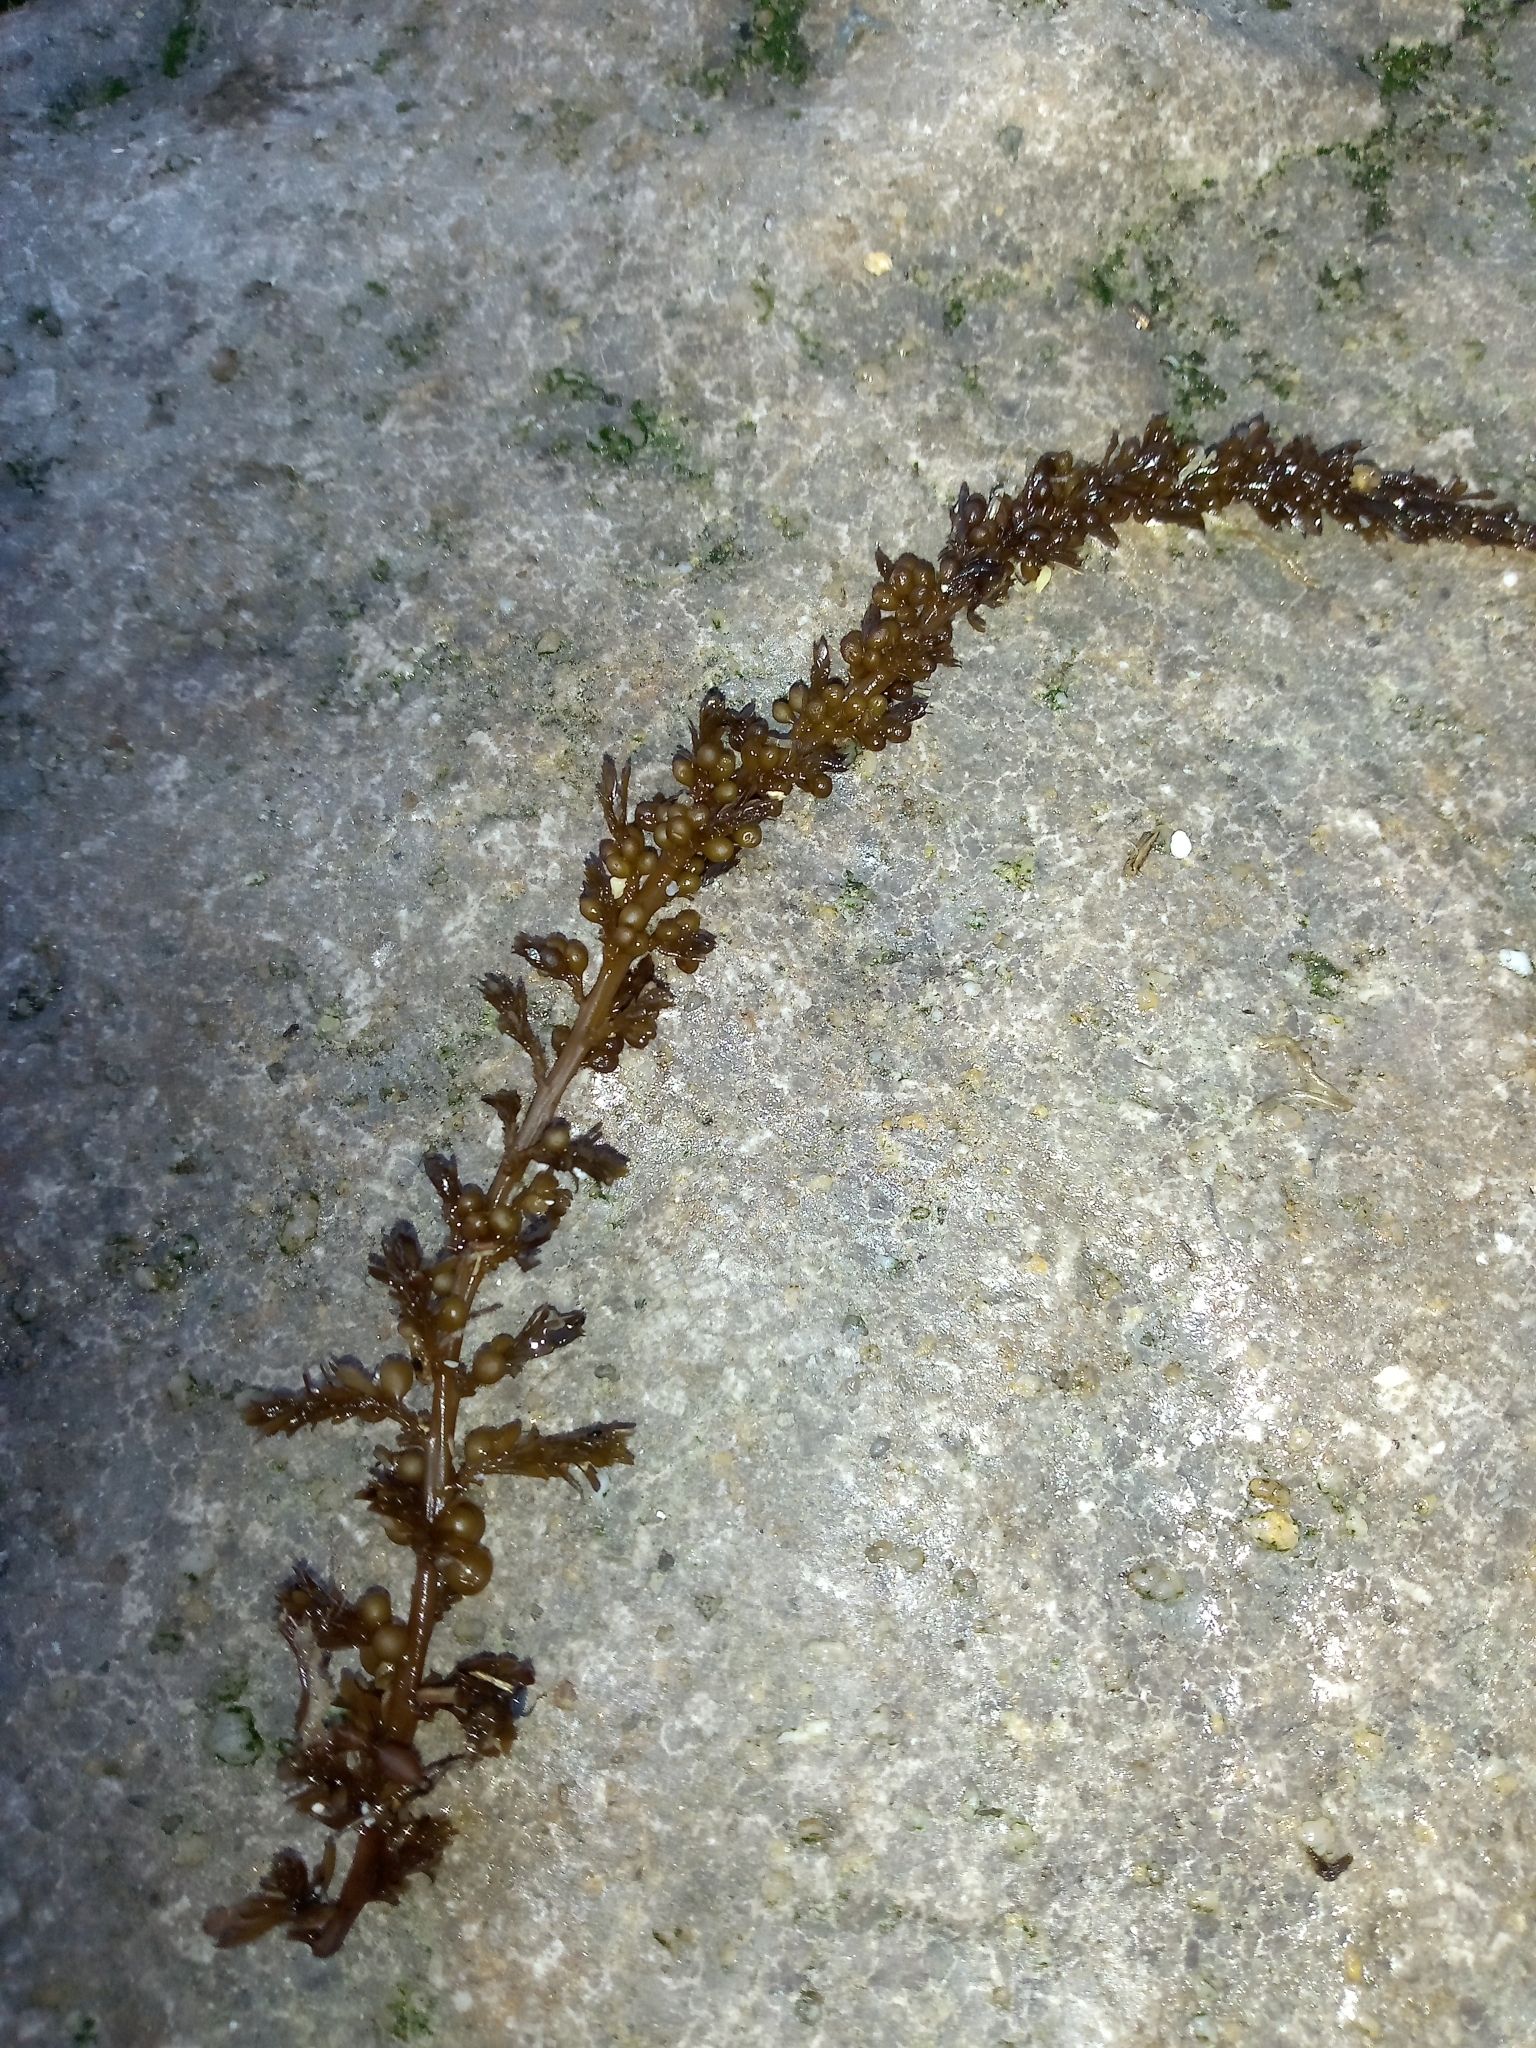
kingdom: Chromista
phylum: Ochrophyta
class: Phaeophyceae
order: Fucales
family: Sargassaceae
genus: Sargassum
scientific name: Sargassum muticum
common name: Japweed
